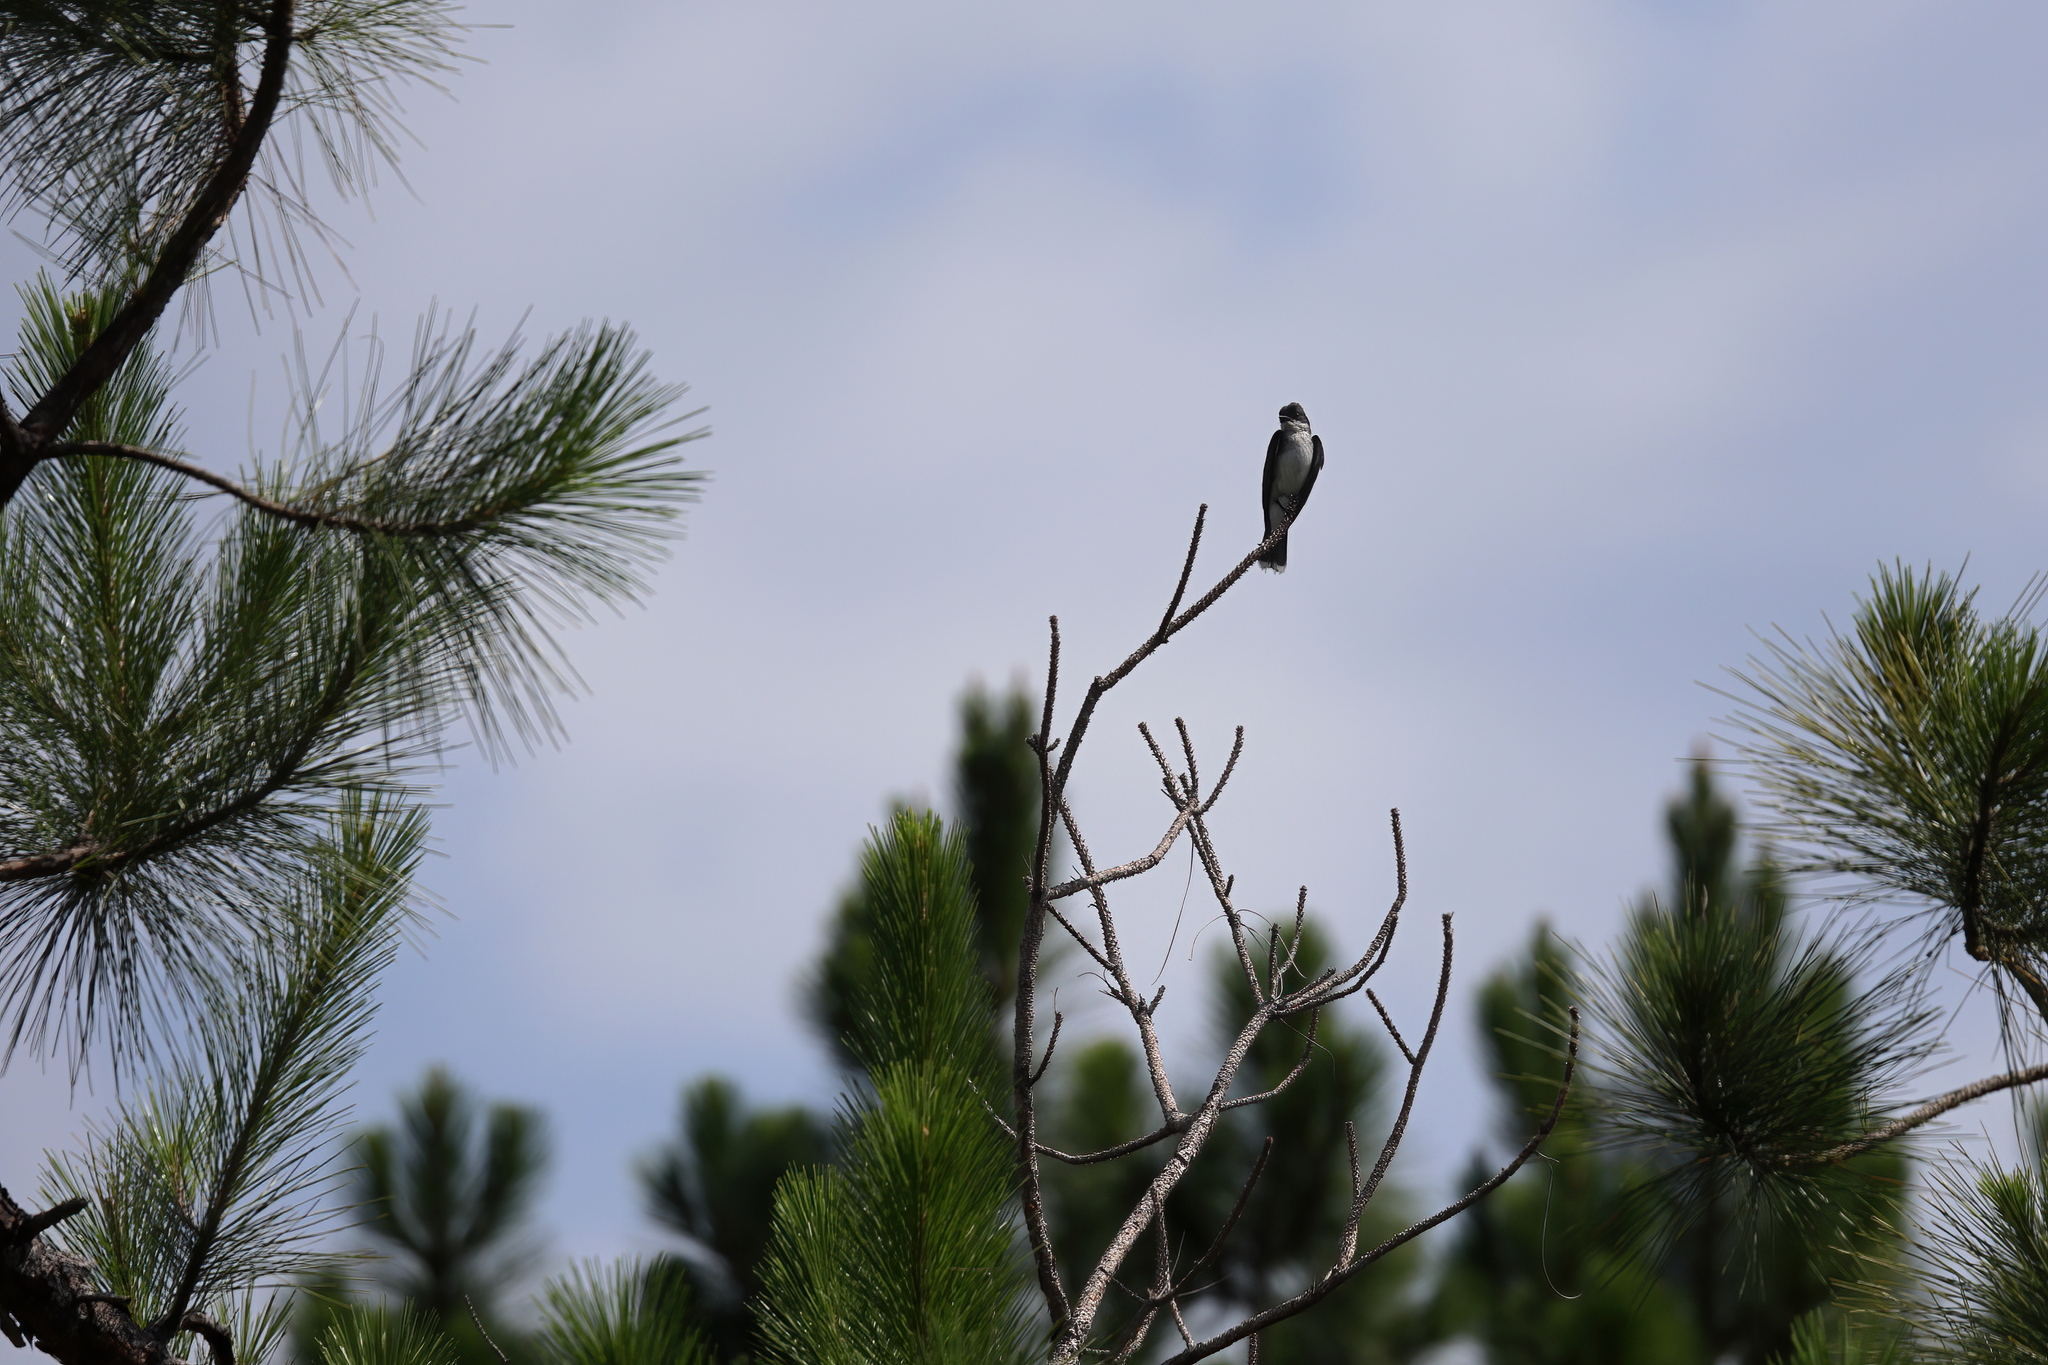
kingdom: Animalia
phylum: Chordata
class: Aves
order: Passeriformes
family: Tyrannidae
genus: Tyrannus
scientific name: Tyrannus tyrannus
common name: Eastern kingbird
